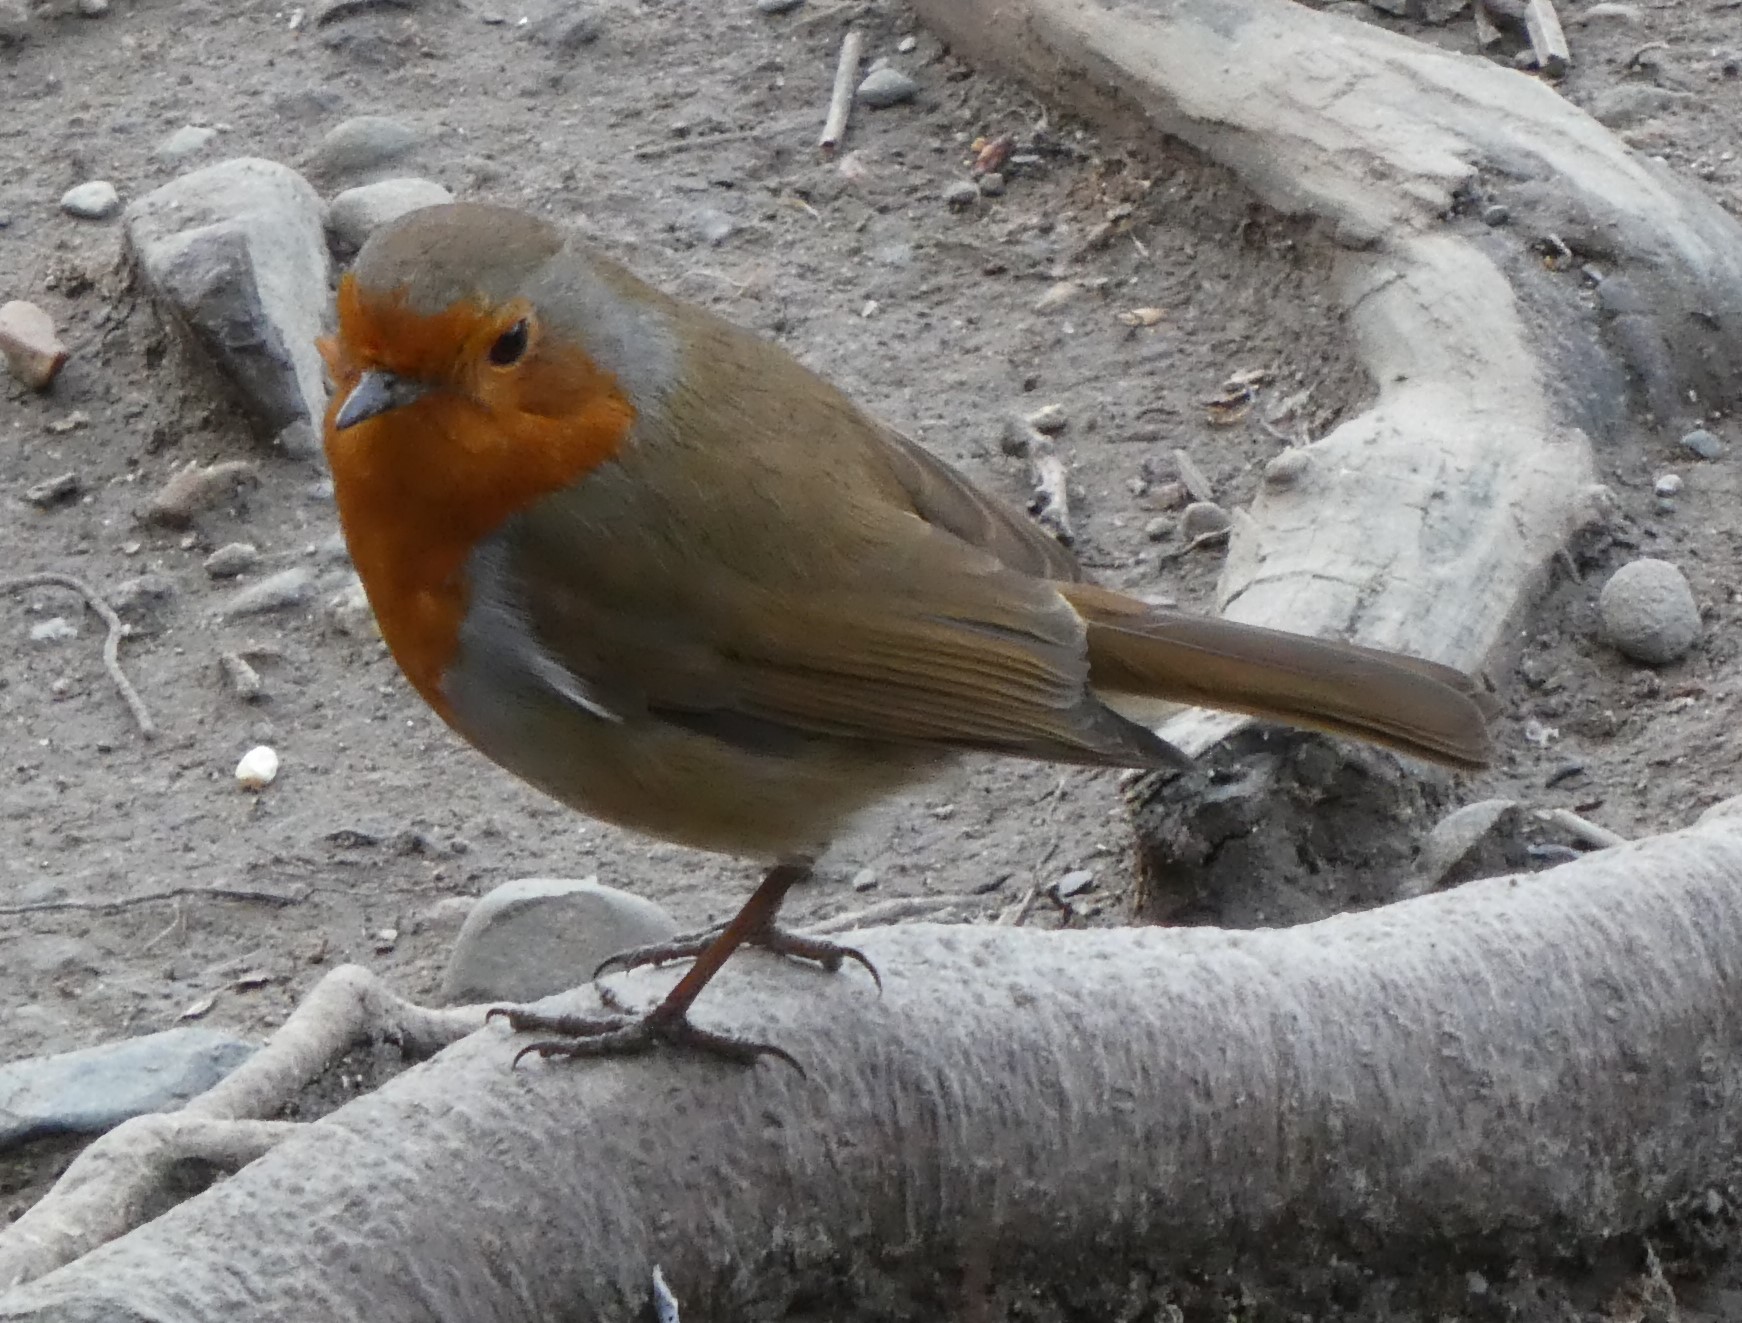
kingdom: Animalia
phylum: Chordata
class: Aves
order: Passeriformes
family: Muscicapidae
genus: Erithacus
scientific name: Erithacus rubecula
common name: European robin
